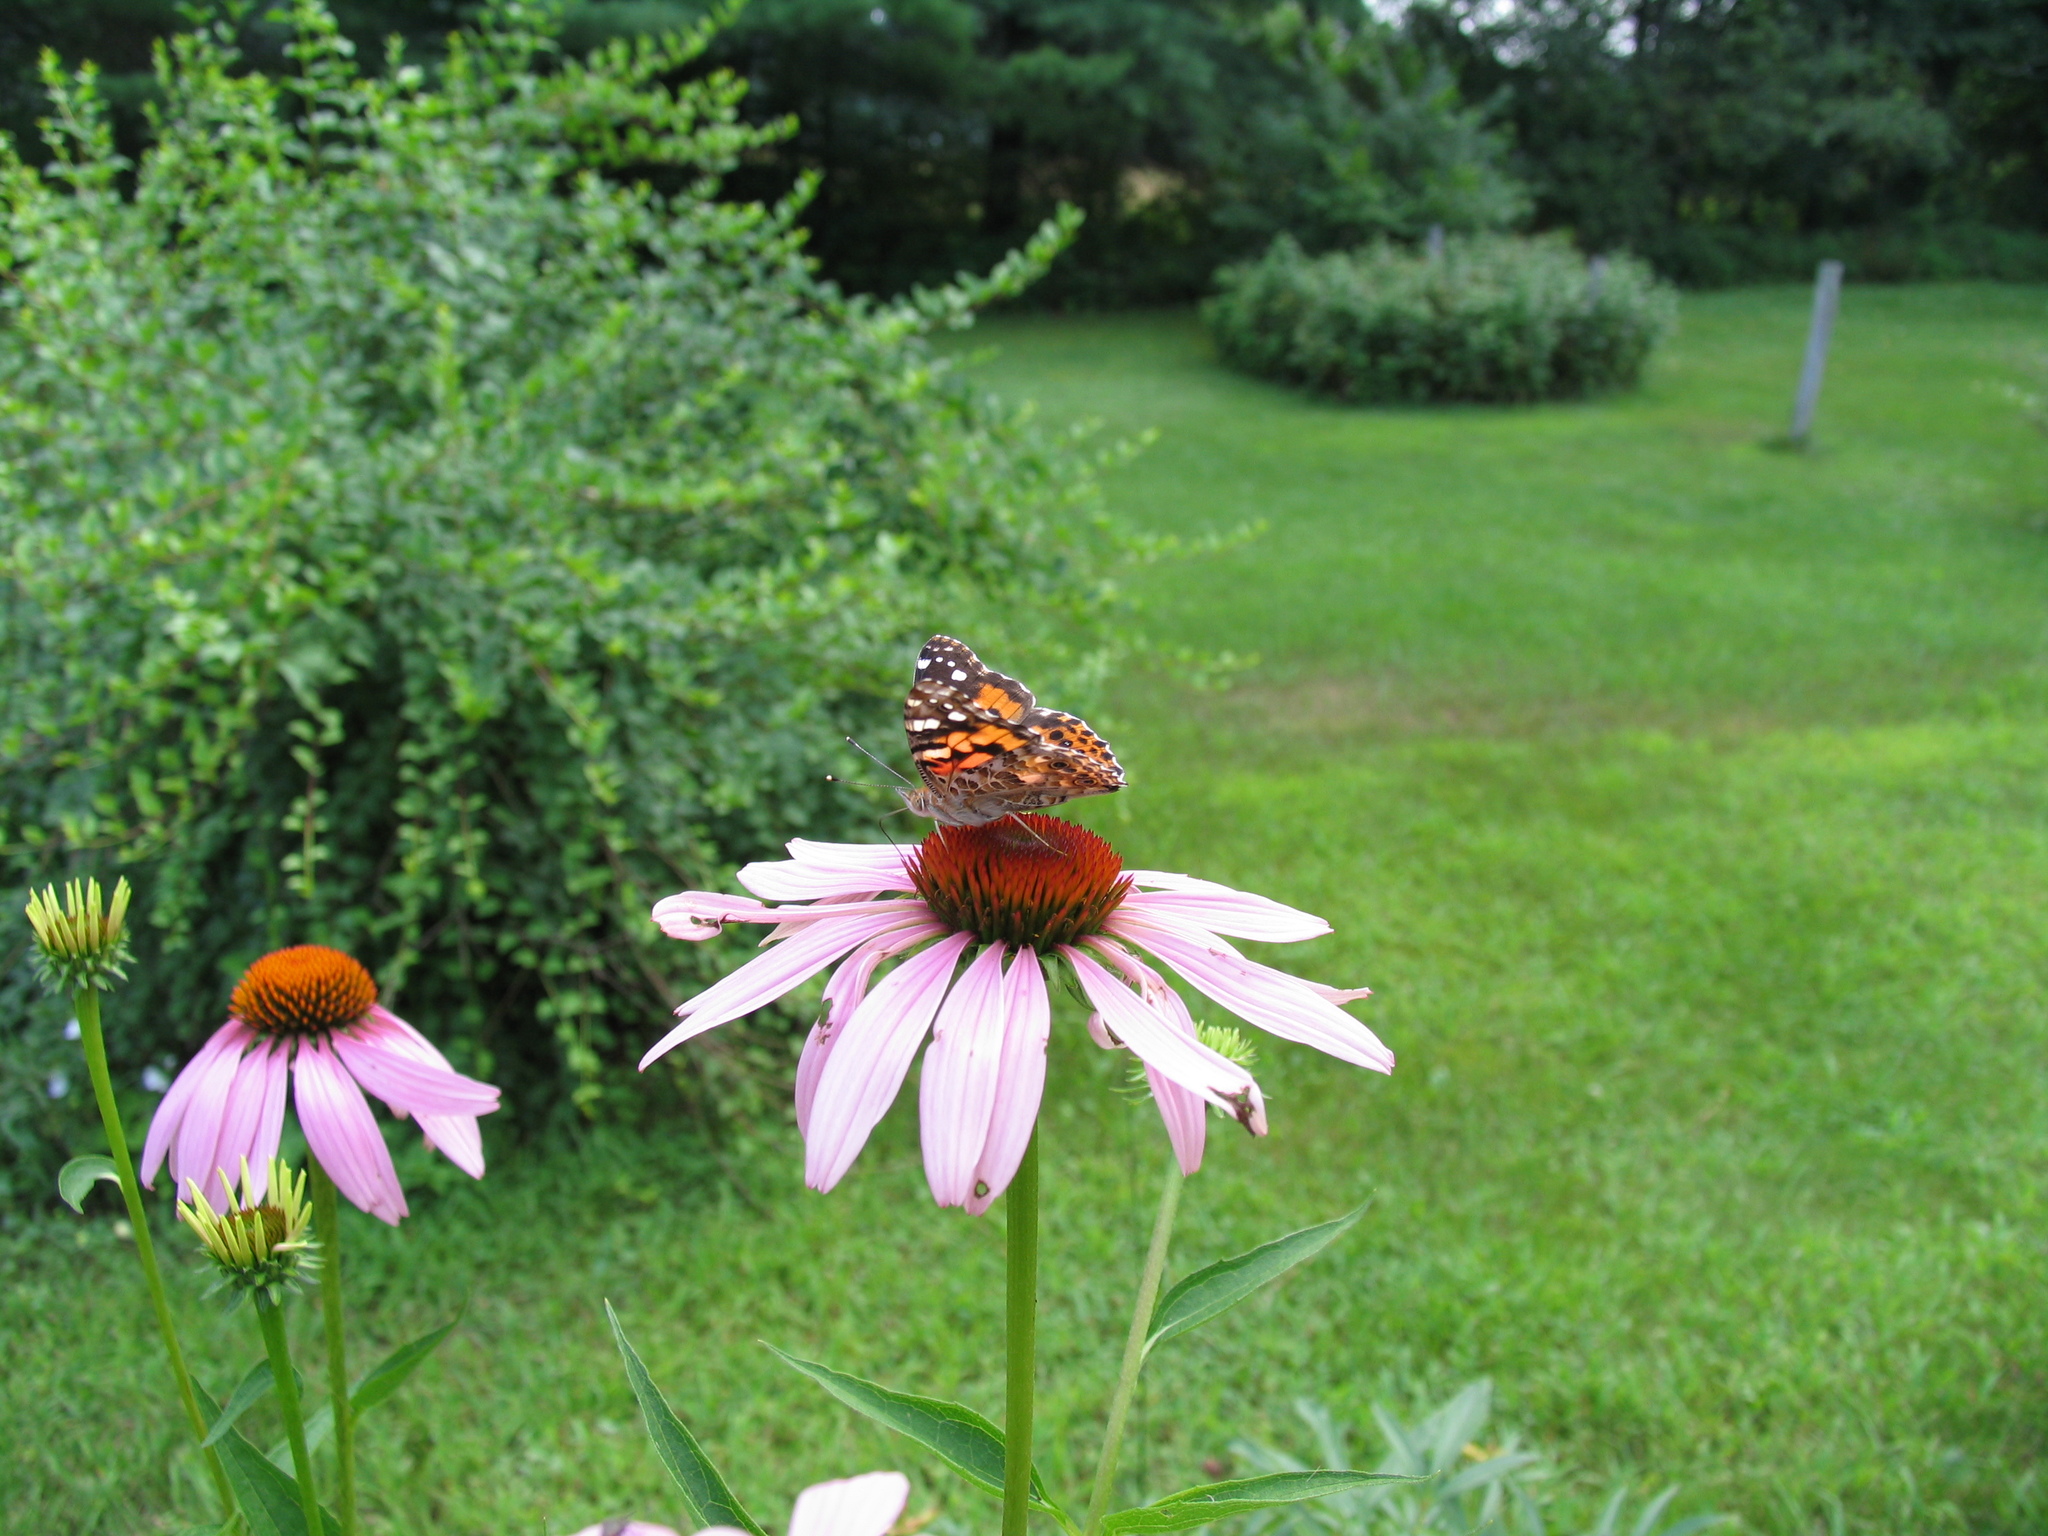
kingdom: Animalia
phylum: Arthropoda
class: Insecta
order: Lepidoptera
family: Nymphalidae
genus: Vanessa
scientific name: Vanessa cardui
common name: Painted lady
